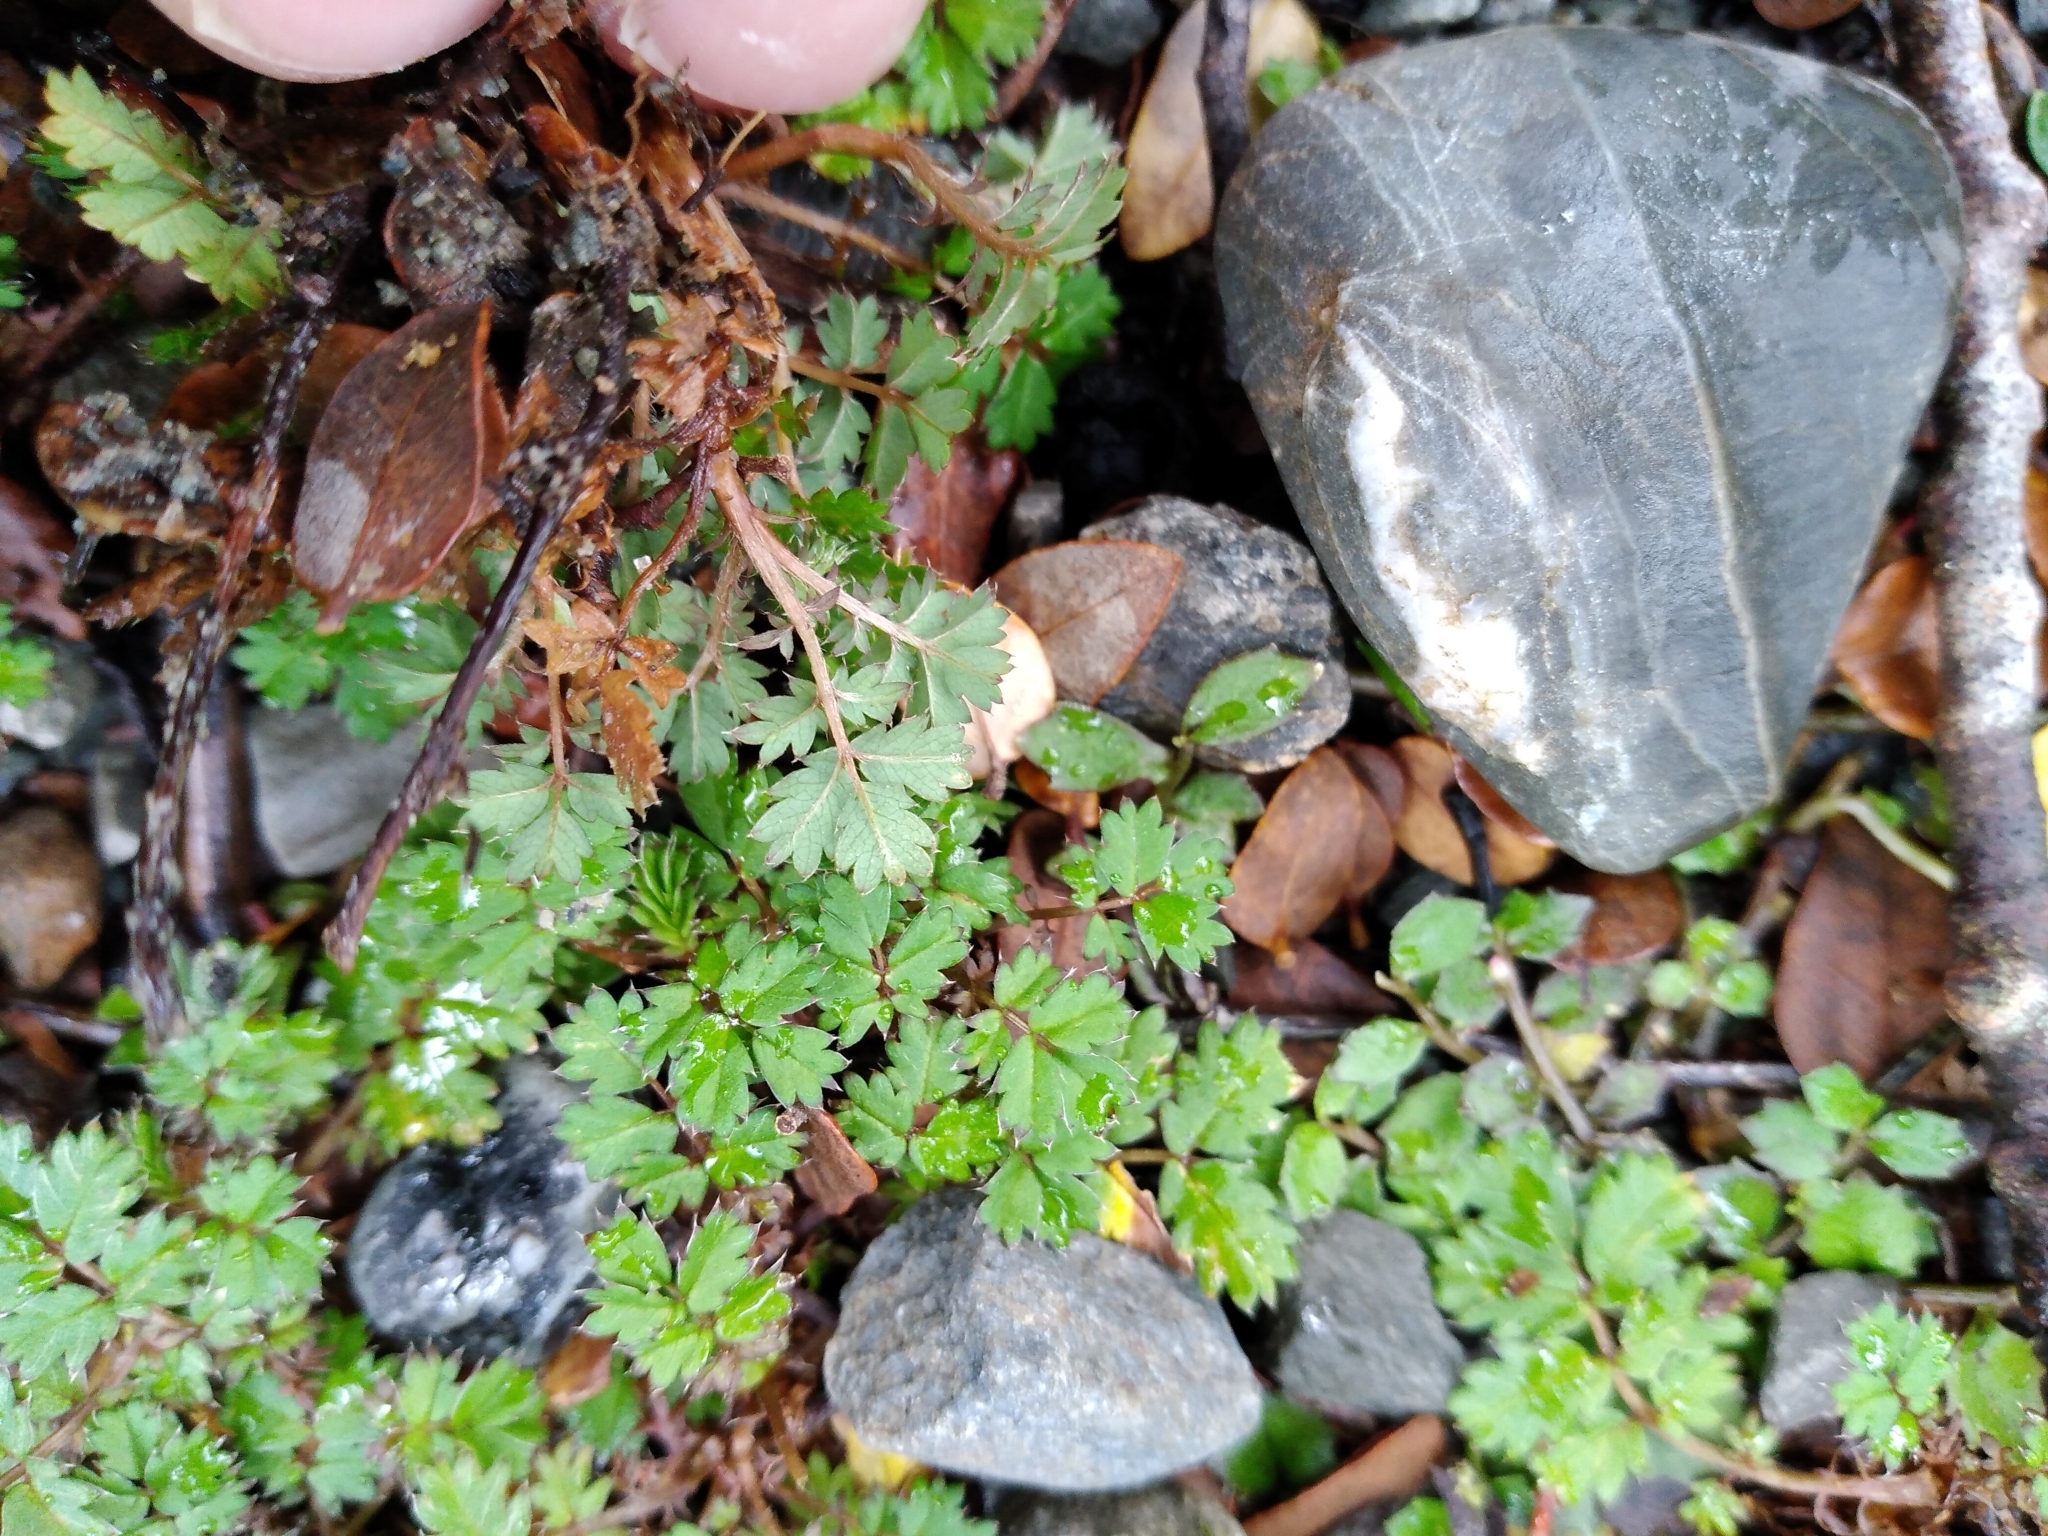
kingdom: Plantae
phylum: Tracheophyta
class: Magnoliopsida
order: Rosales
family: Rosaceae
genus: Acaena
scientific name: Acaena anserinifolia
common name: Bronze pirri-pirri-bur
